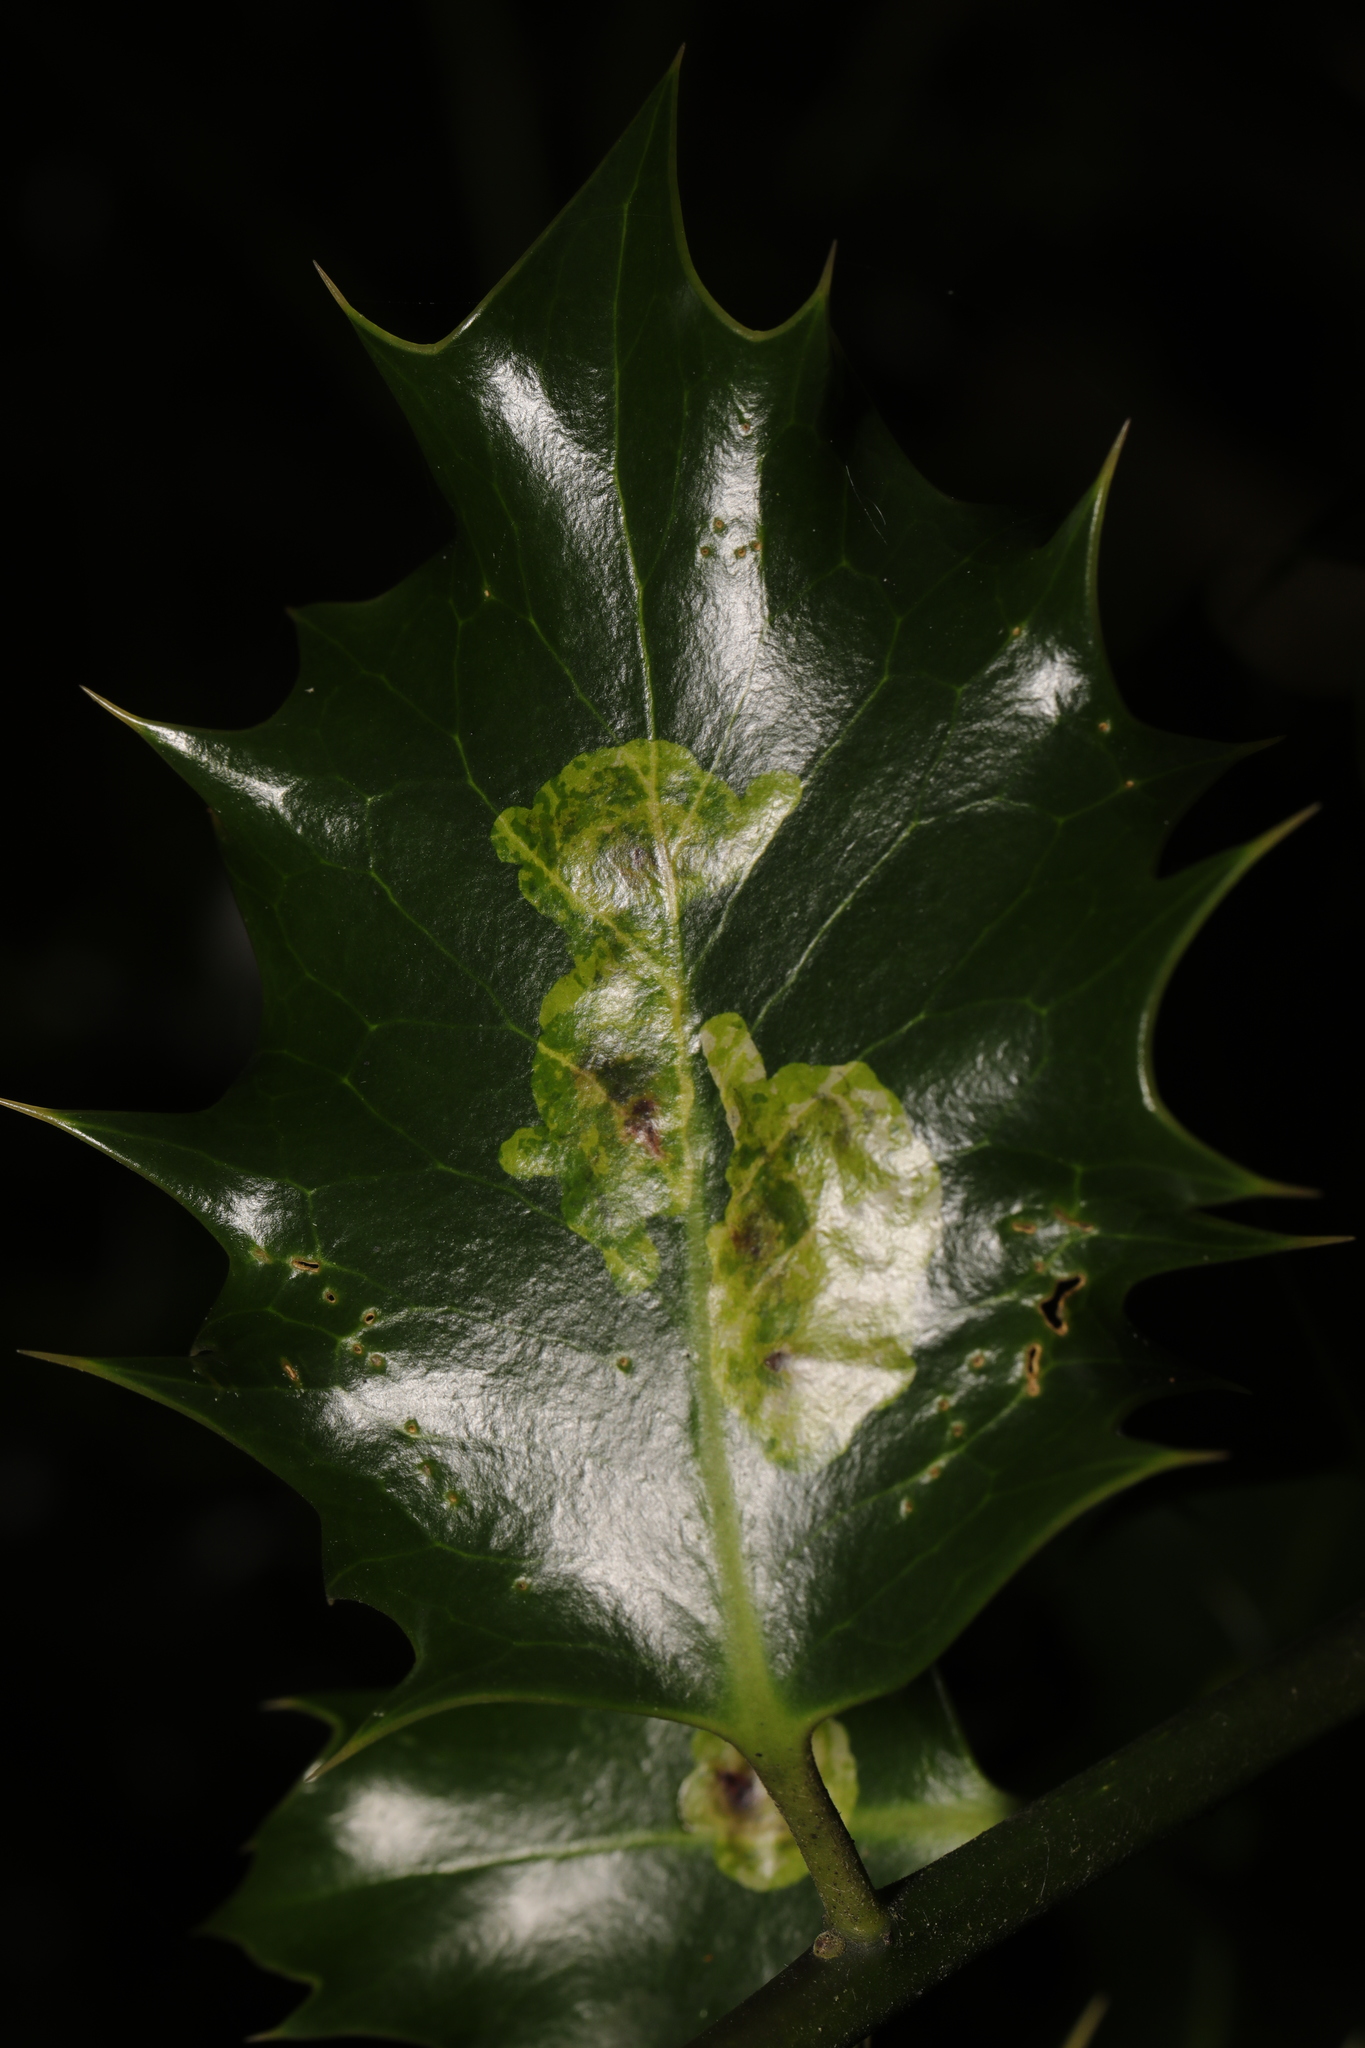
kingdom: Animalia
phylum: Arthropoda
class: Insecta
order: Diptera
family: Agromyzidae
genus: Phytomyza
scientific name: Phytomyza ilicis
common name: Holly leafminer
